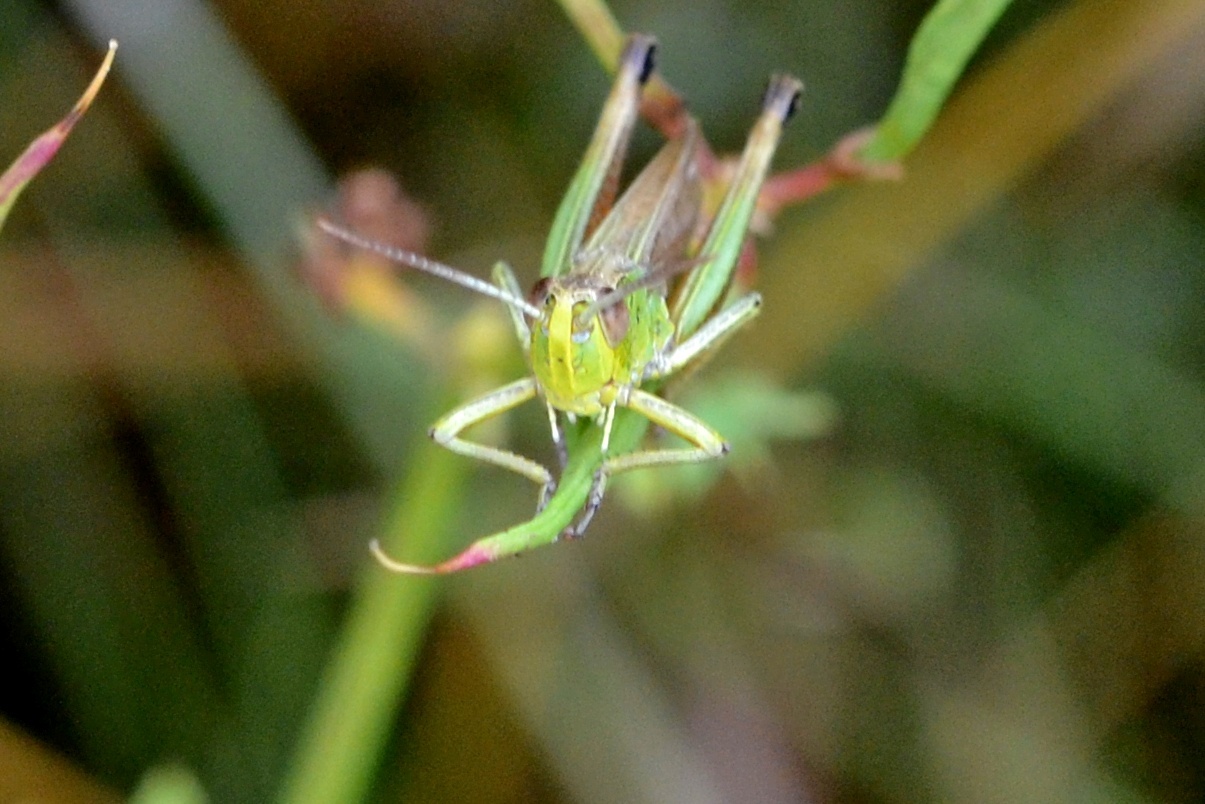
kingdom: Animalia
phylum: Arthropoda
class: Insecta
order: Orthoptera
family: Acrididae
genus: Pseudochorthippus
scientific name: Pseudochorthippus parallelus
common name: Meadow grasshopper
